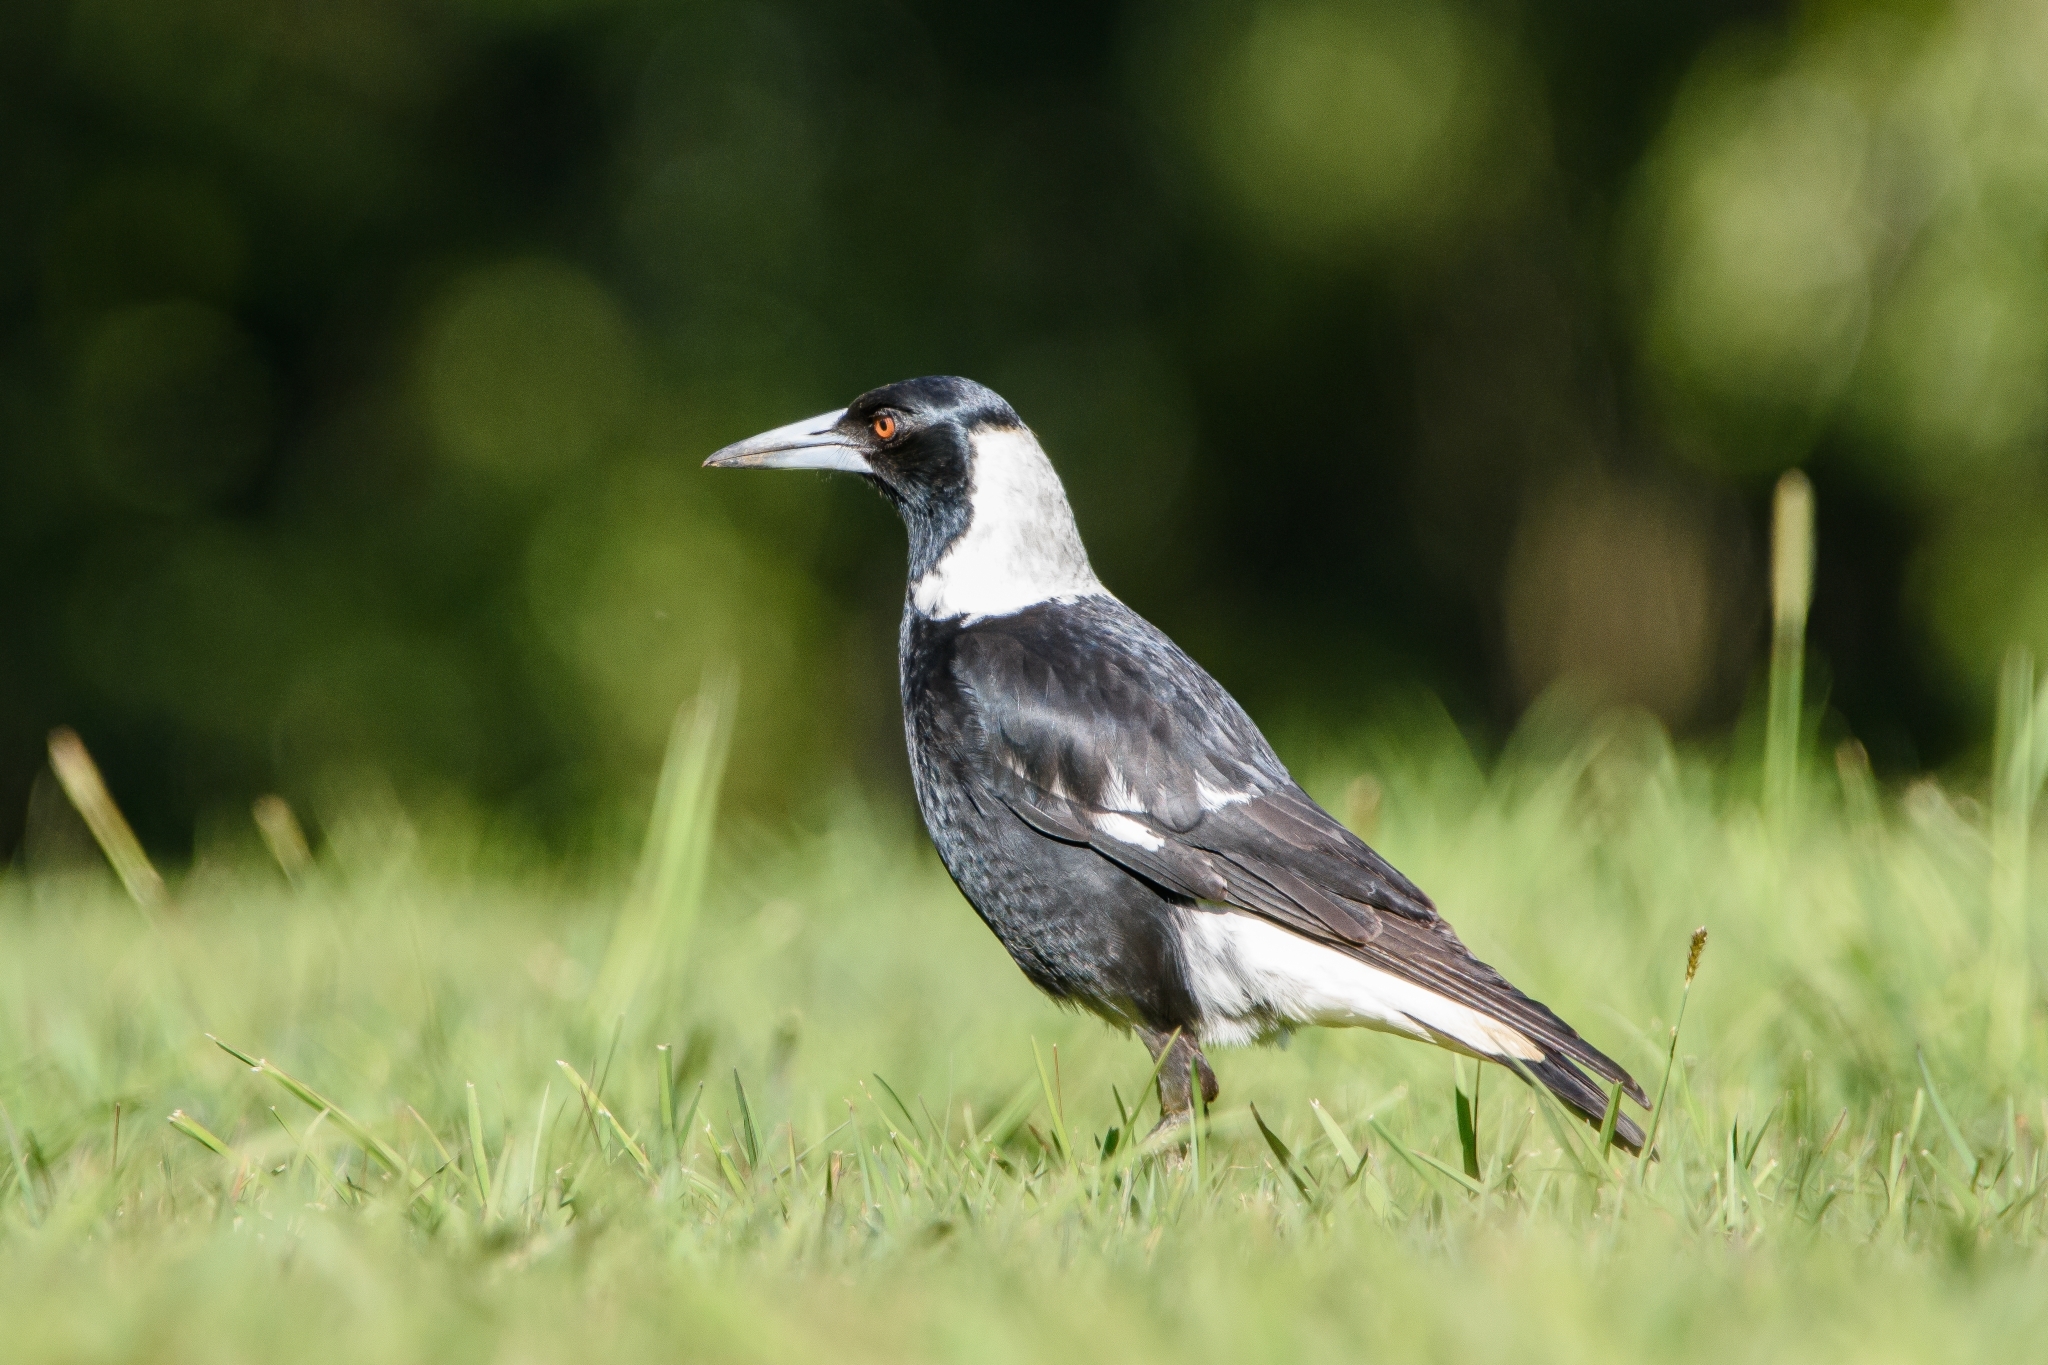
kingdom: Animalia
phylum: Chordata
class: Aves
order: Passeriformes
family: Cracticidae
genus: Gymnorhina
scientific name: Gymnorhina tibicen
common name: Australian magpie
